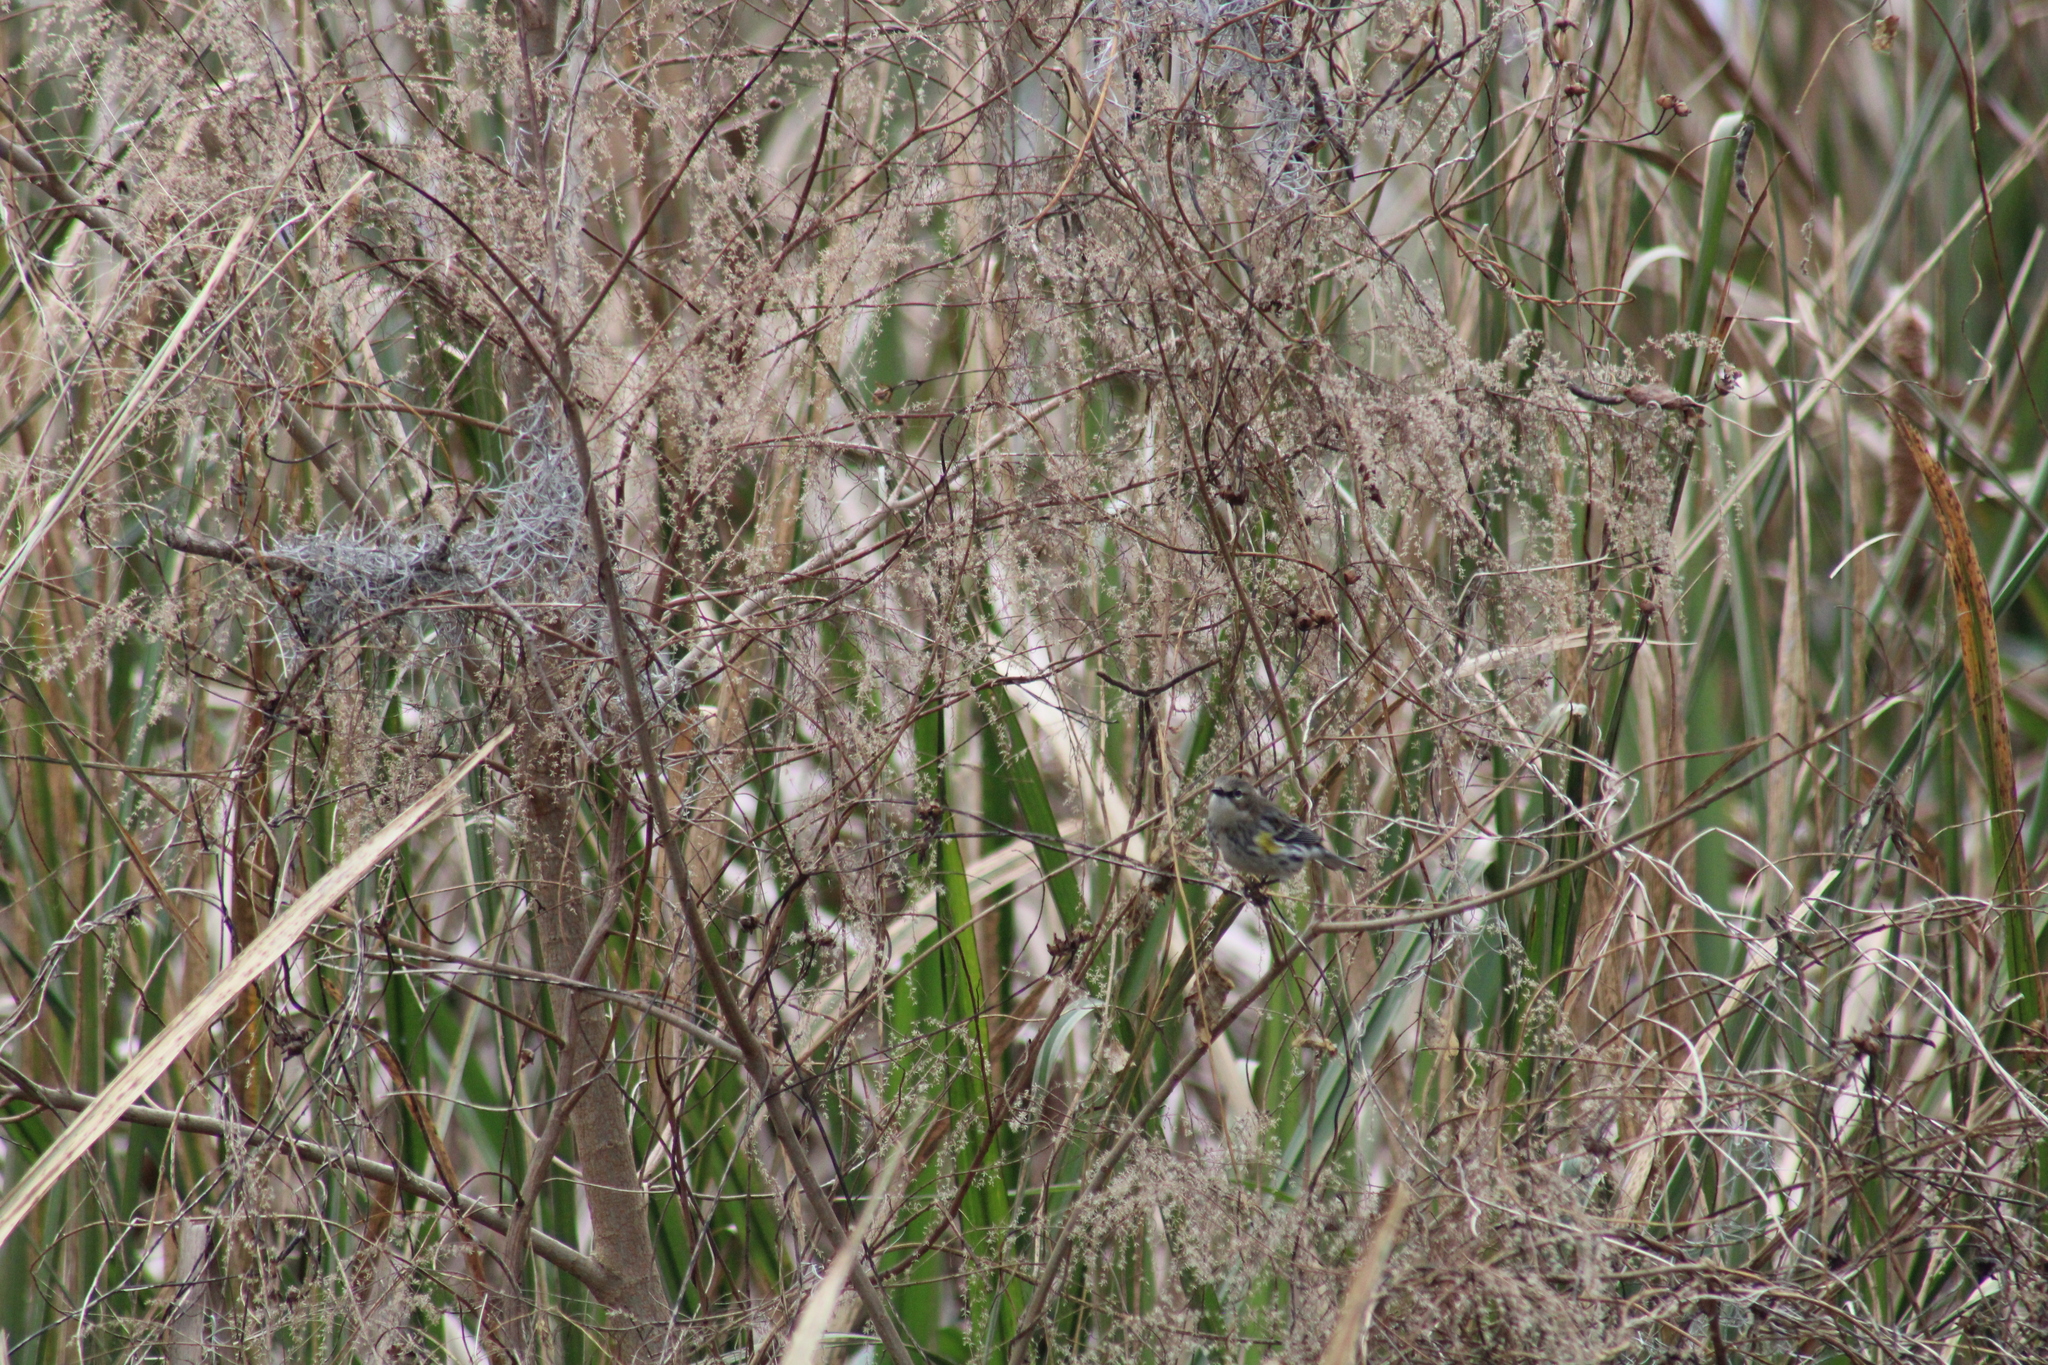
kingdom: Animalia
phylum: Chordata
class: Aves
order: Passeriformes
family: Parulidae
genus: Setophaga
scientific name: Setophaga coronata
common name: Myrtle warbler
